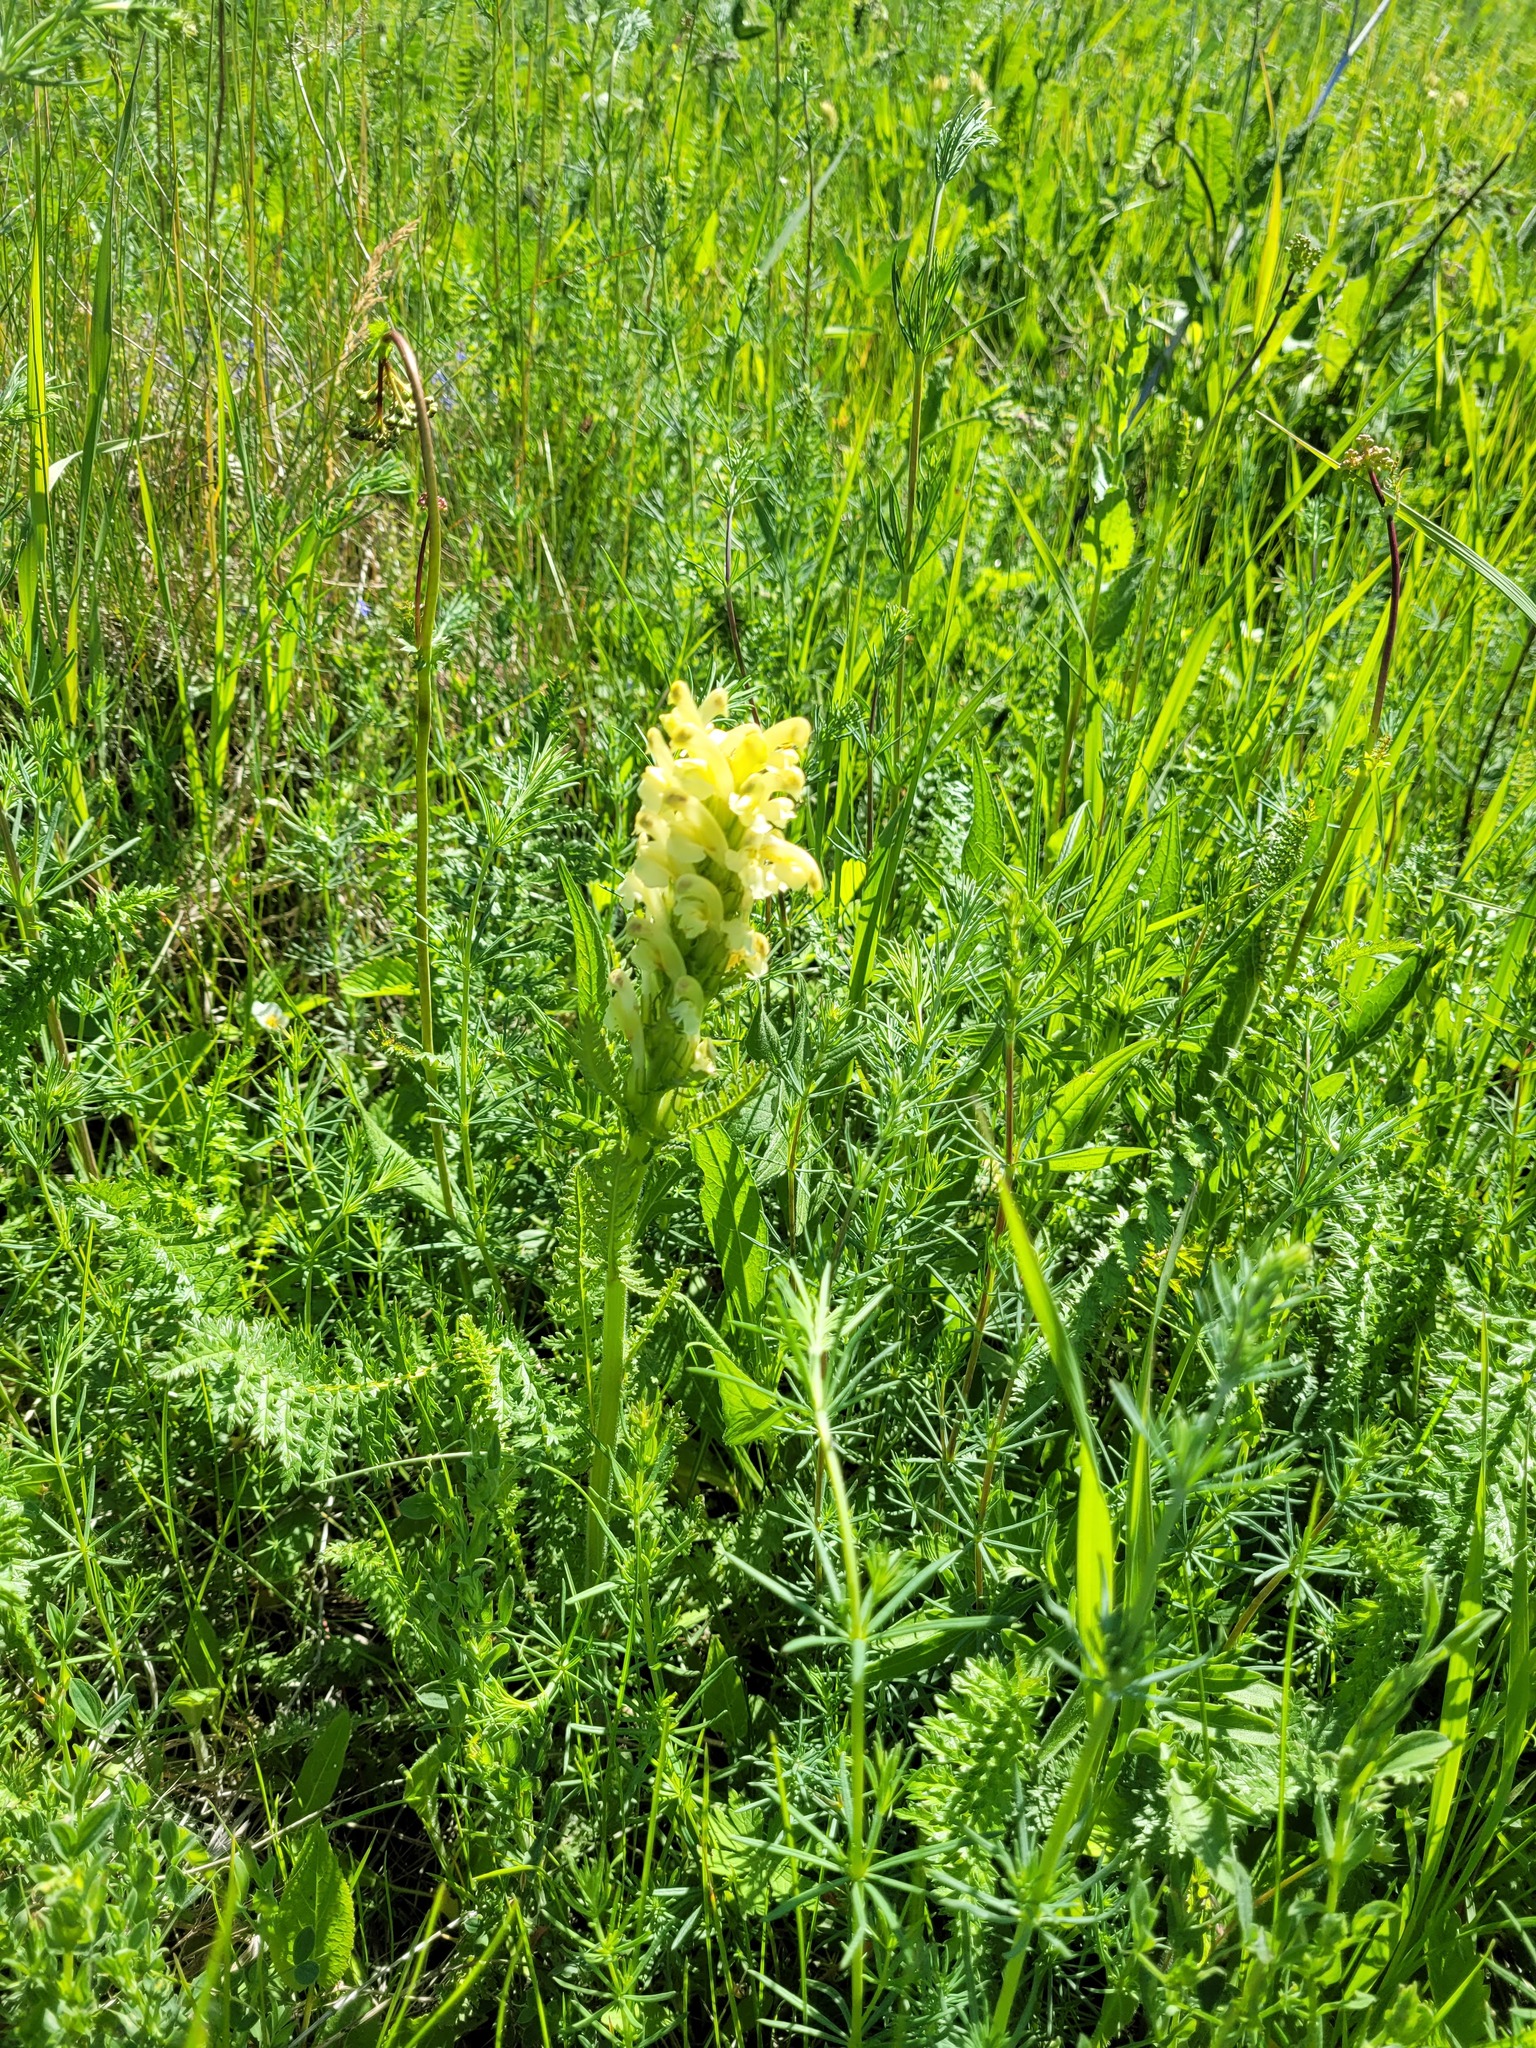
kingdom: Plantae
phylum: Tracheophyta
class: Magnoliopsida
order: Lamiales
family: Orobanchaceae
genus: Pedicularis
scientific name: Pedicularis kaufmannii
